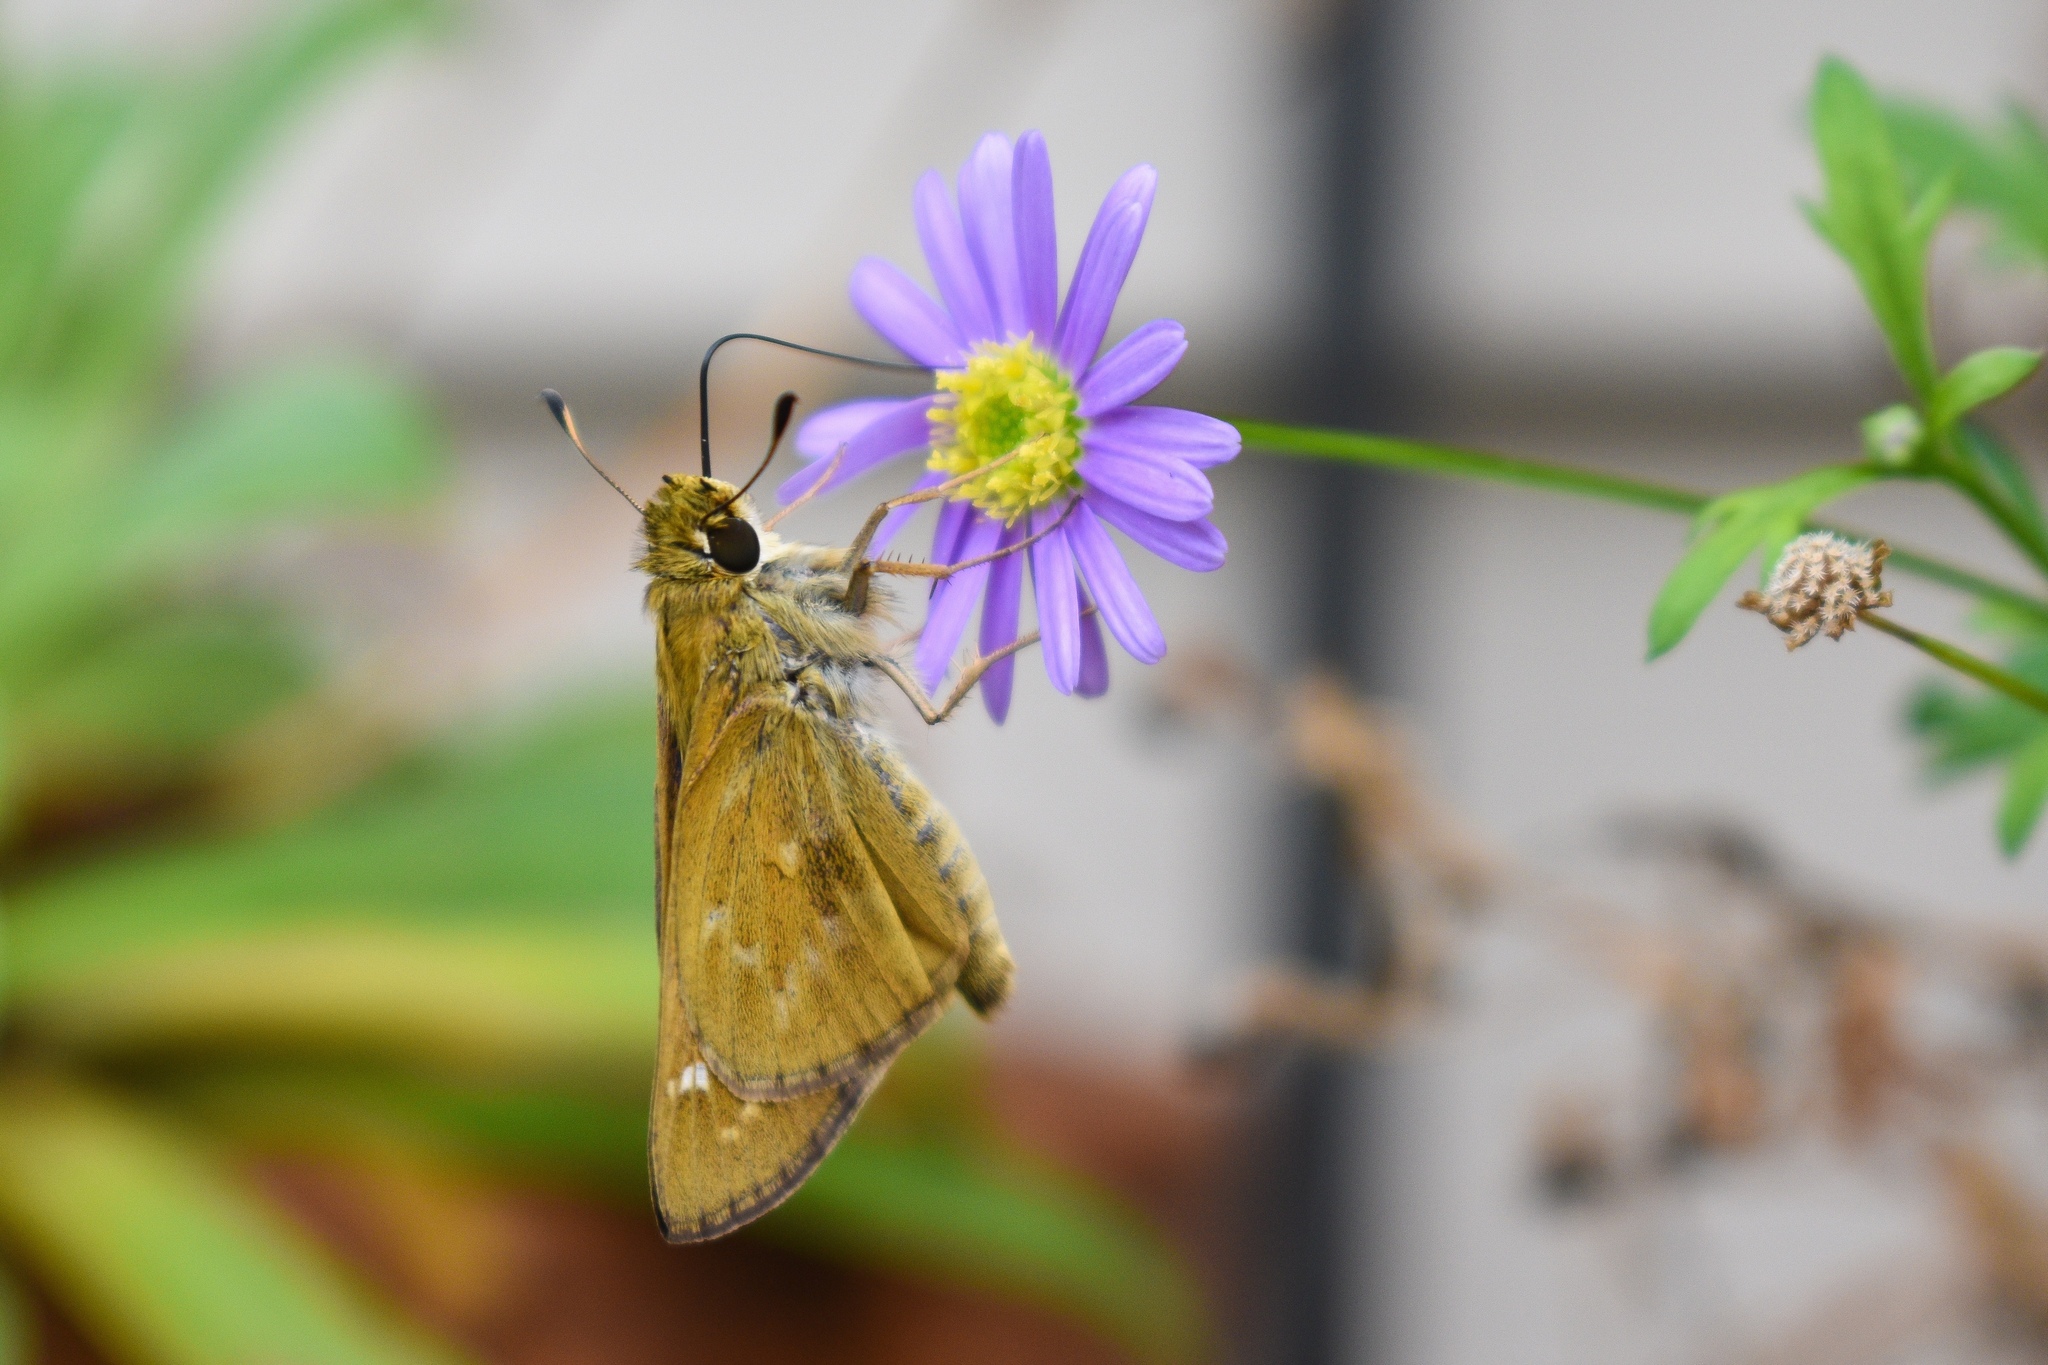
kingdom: Animalia
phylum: Arthropoda
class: Insecta
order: Lepidoptera
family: Hesperiidae
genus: Atalopedes
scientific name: Atalopedes
